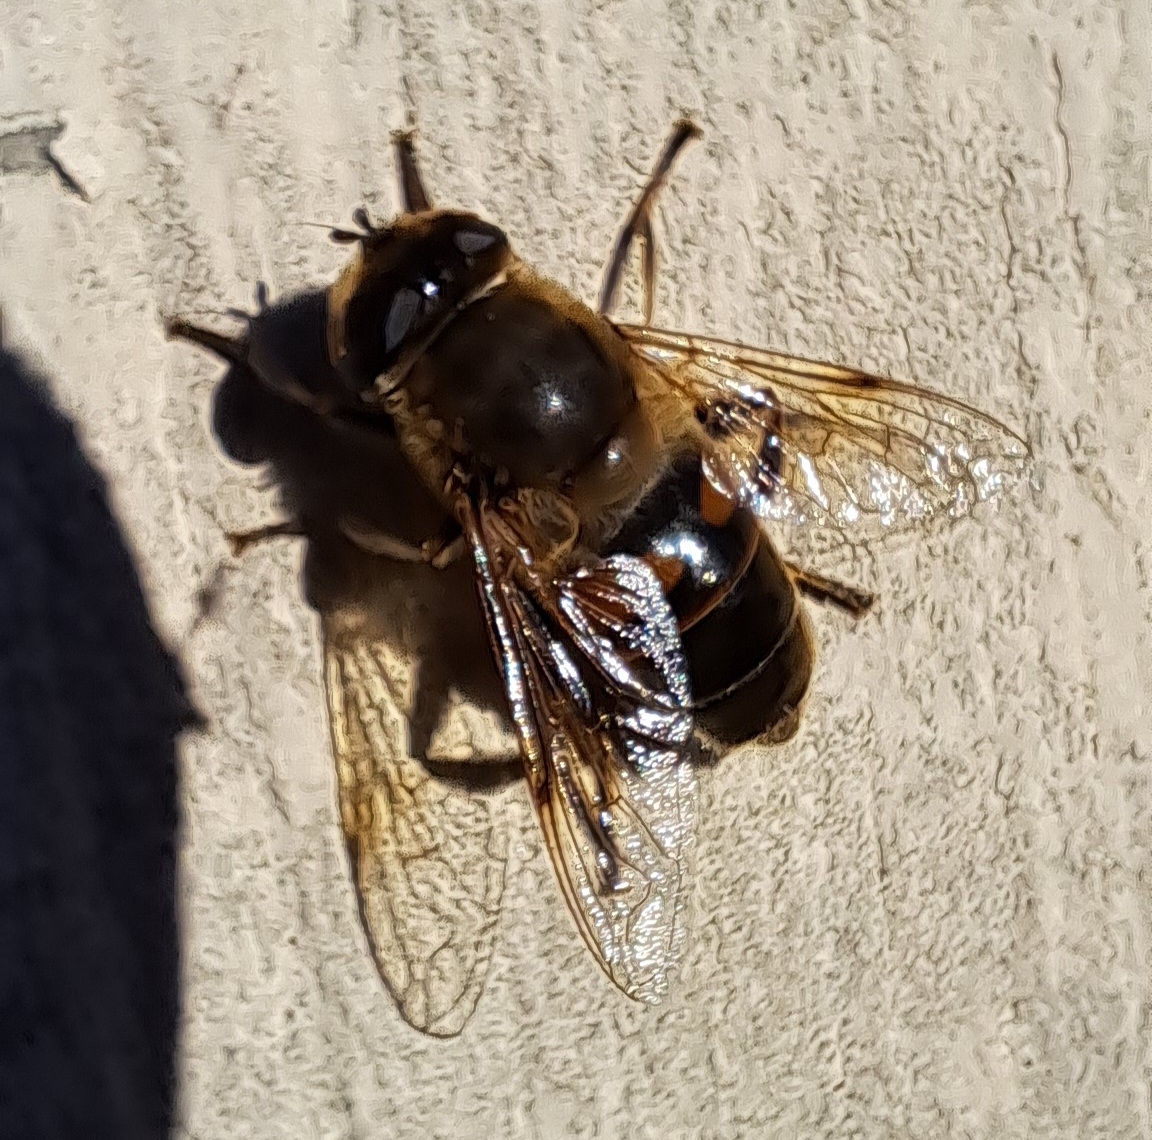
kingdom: Animalia
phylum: Arthropoda
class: Insecta
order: Diptera
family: Syrphidae
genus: Eristalis
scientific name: Eristalis tenax
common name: Drone fly
